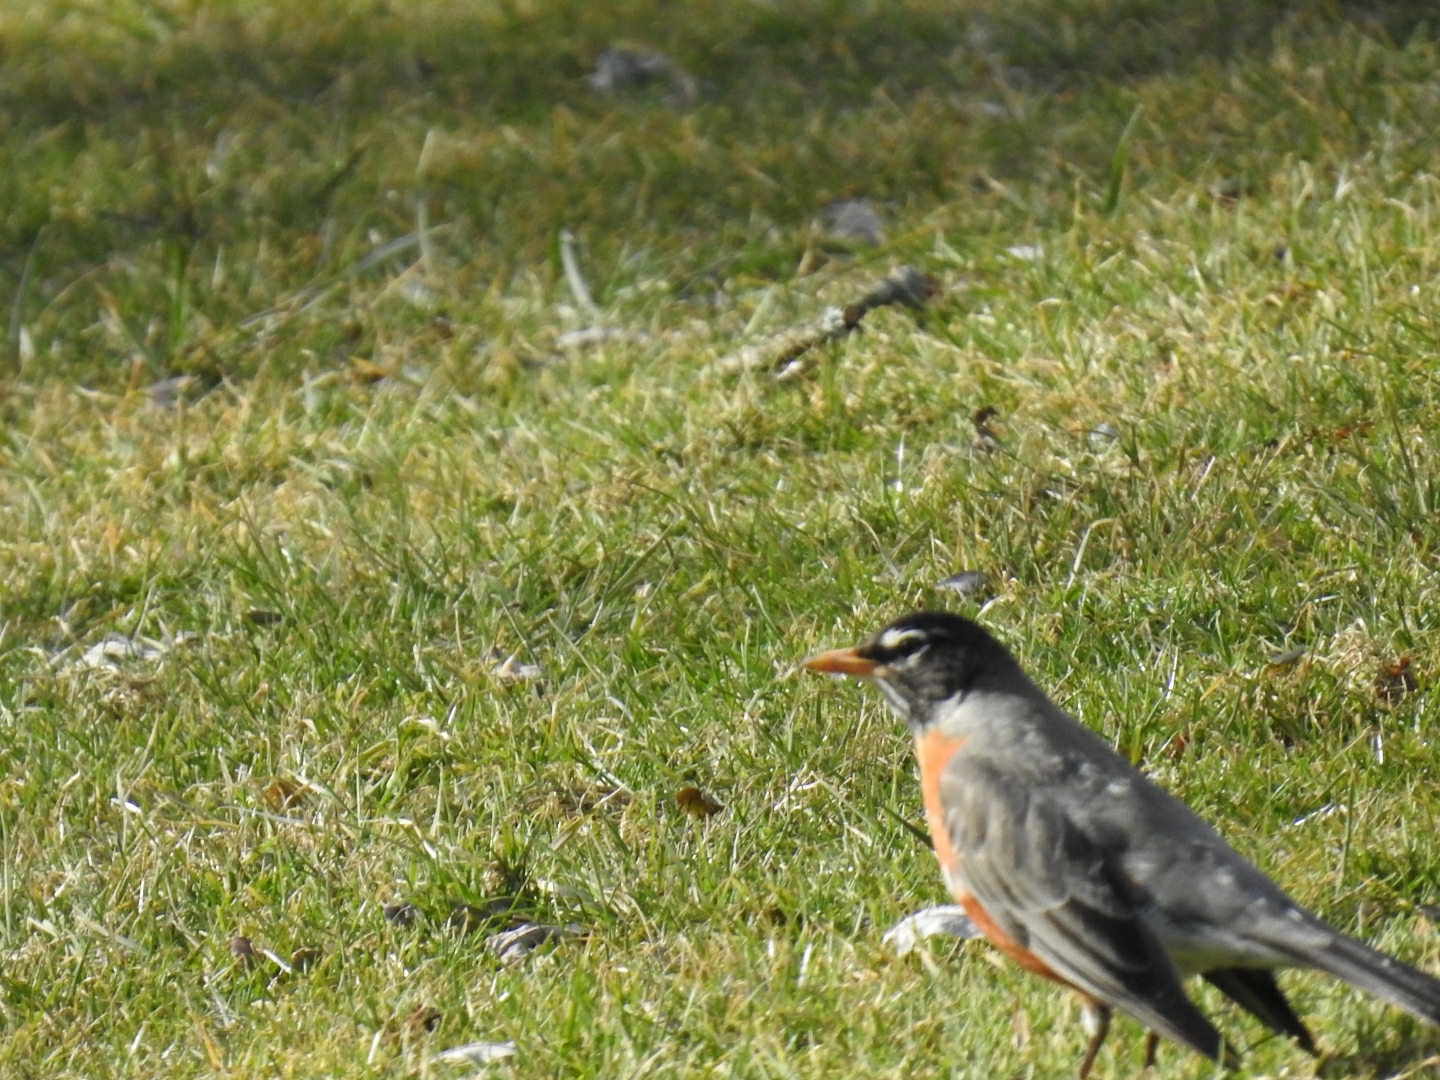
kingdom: Animalia
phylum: Chordata
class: Aves
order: Passeriformes
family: Turdidae
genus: Turdus
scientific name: Turdus migratorius
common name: American robin
